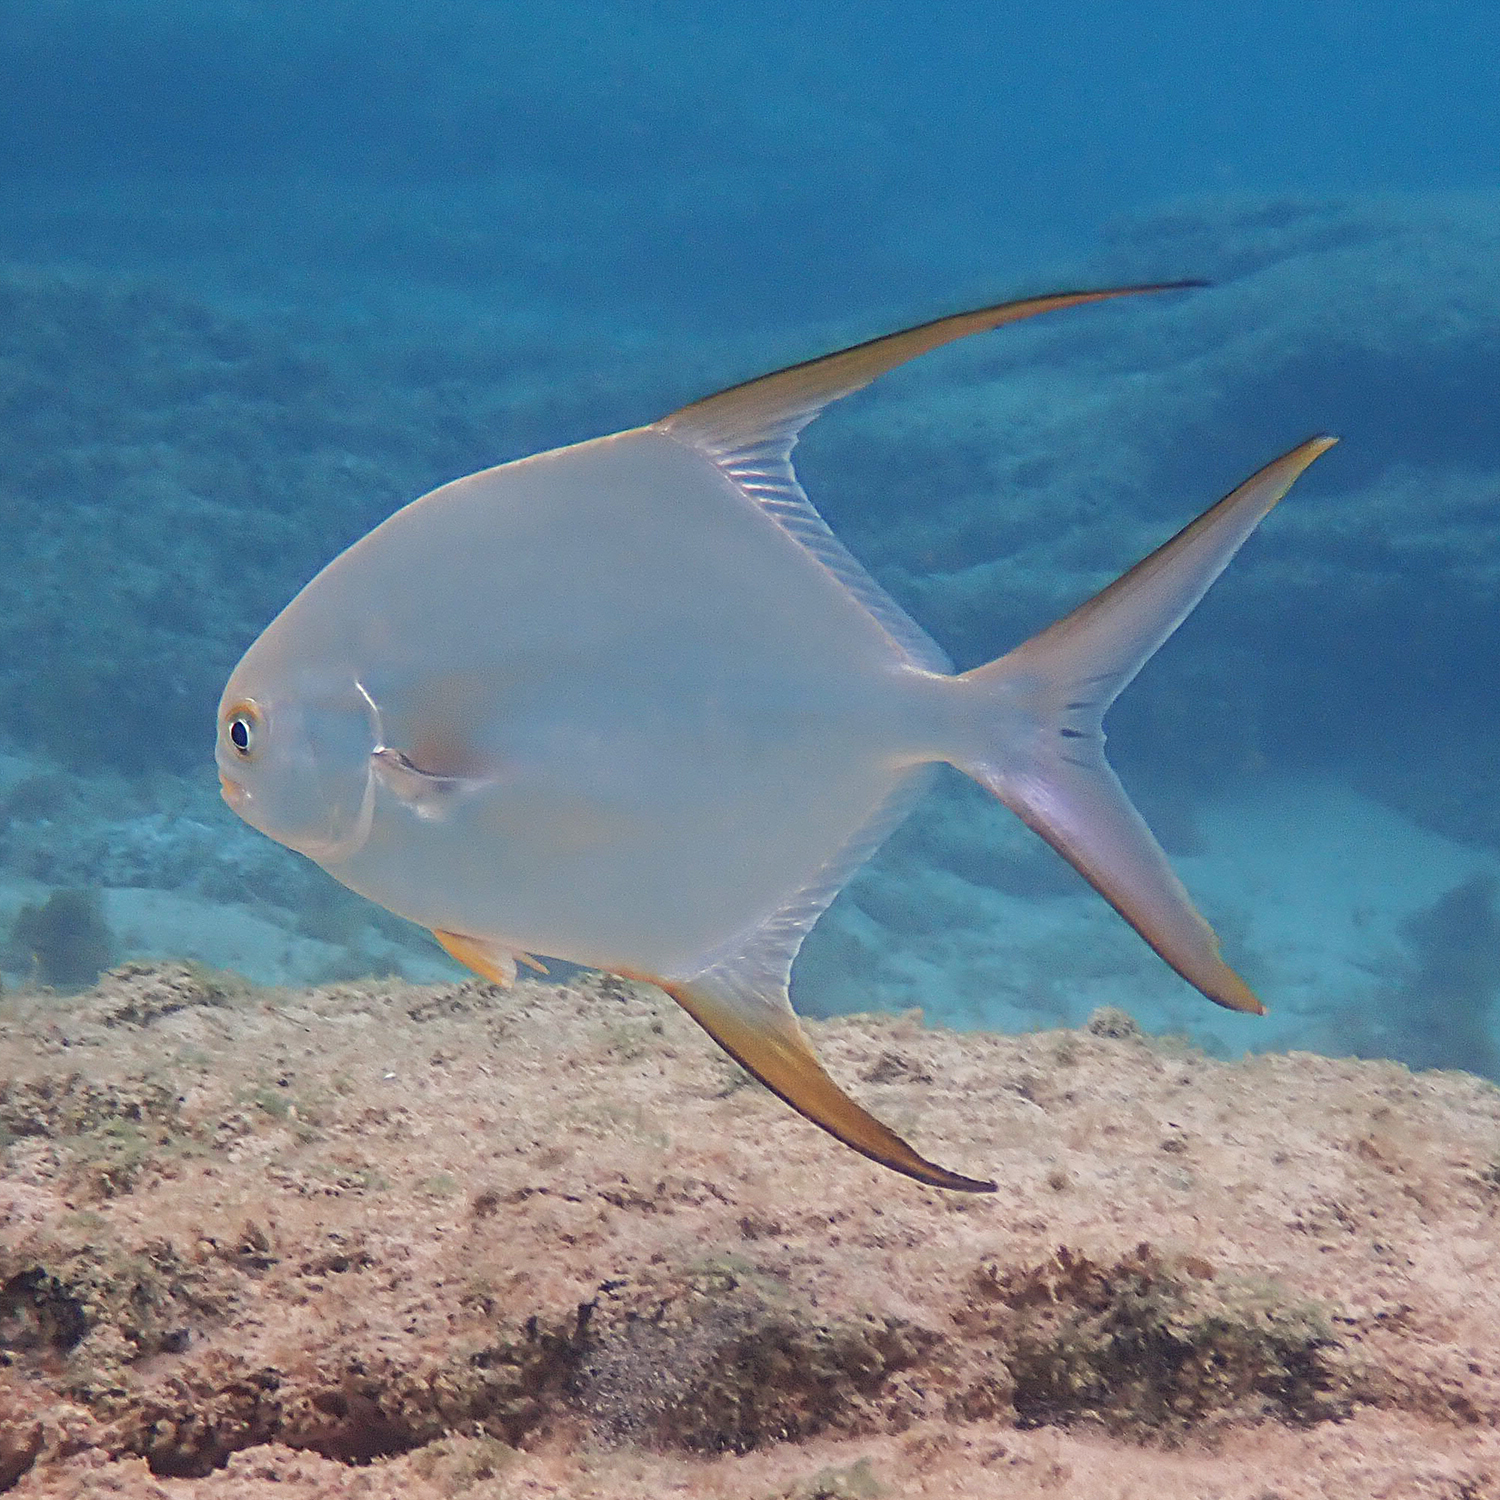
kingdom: Animalia
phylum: Chordata
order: Perciformes
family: Carangidae
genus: Trachinotus
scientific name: Trachinotus blochii
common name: Snubnose pompano
